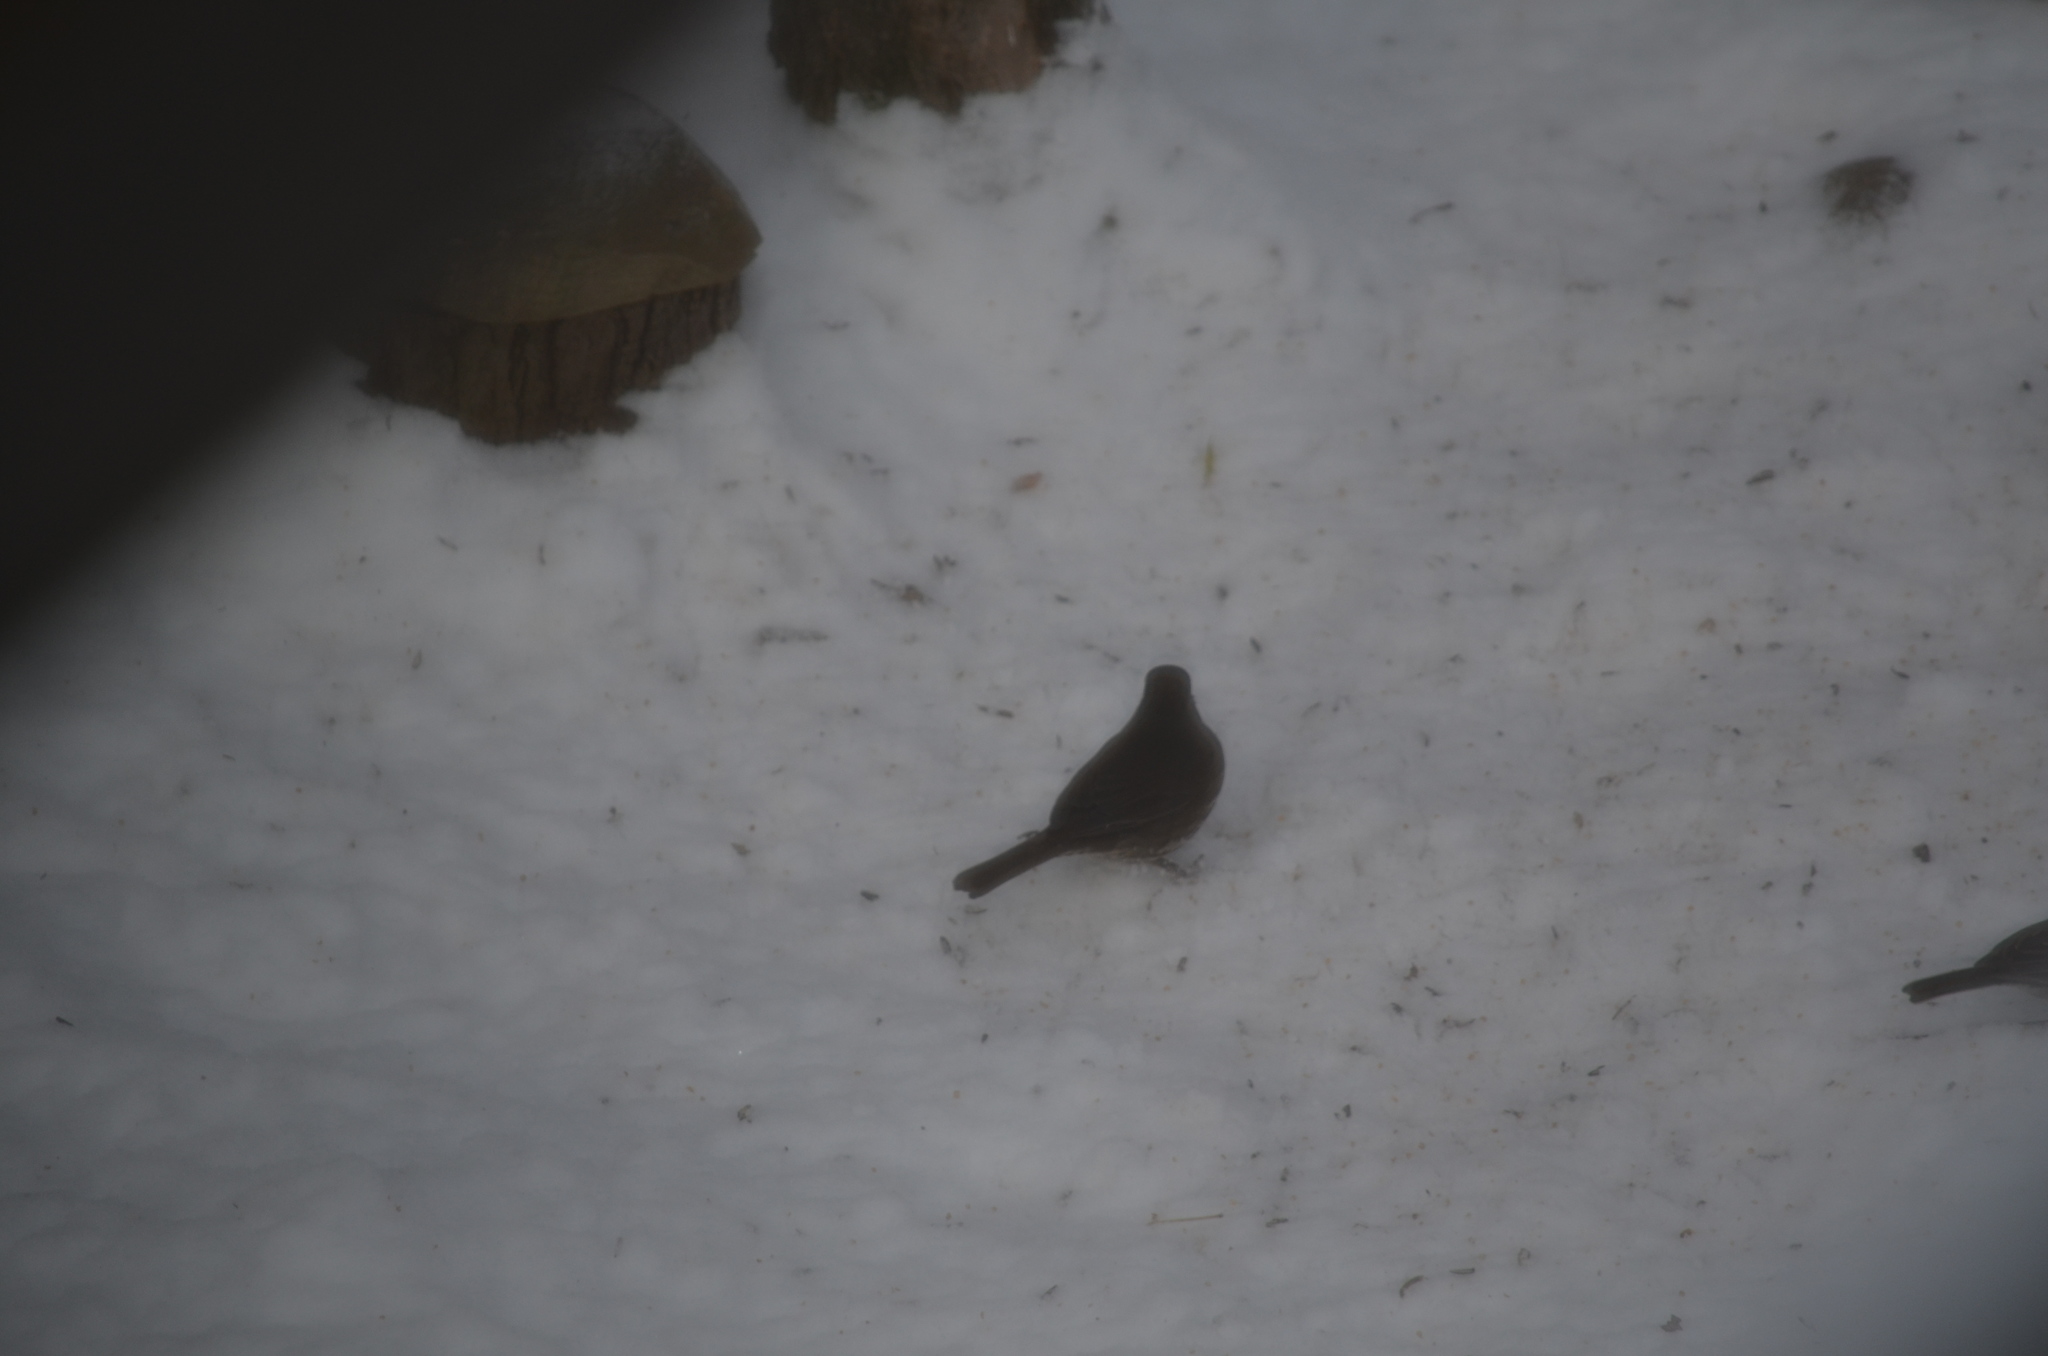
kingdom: Animalia
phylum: Chordata
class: Aves
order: Passeriformes
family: Passerellidae
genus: Passerella
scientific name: Passerella iliaca
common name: Fox sparrow
